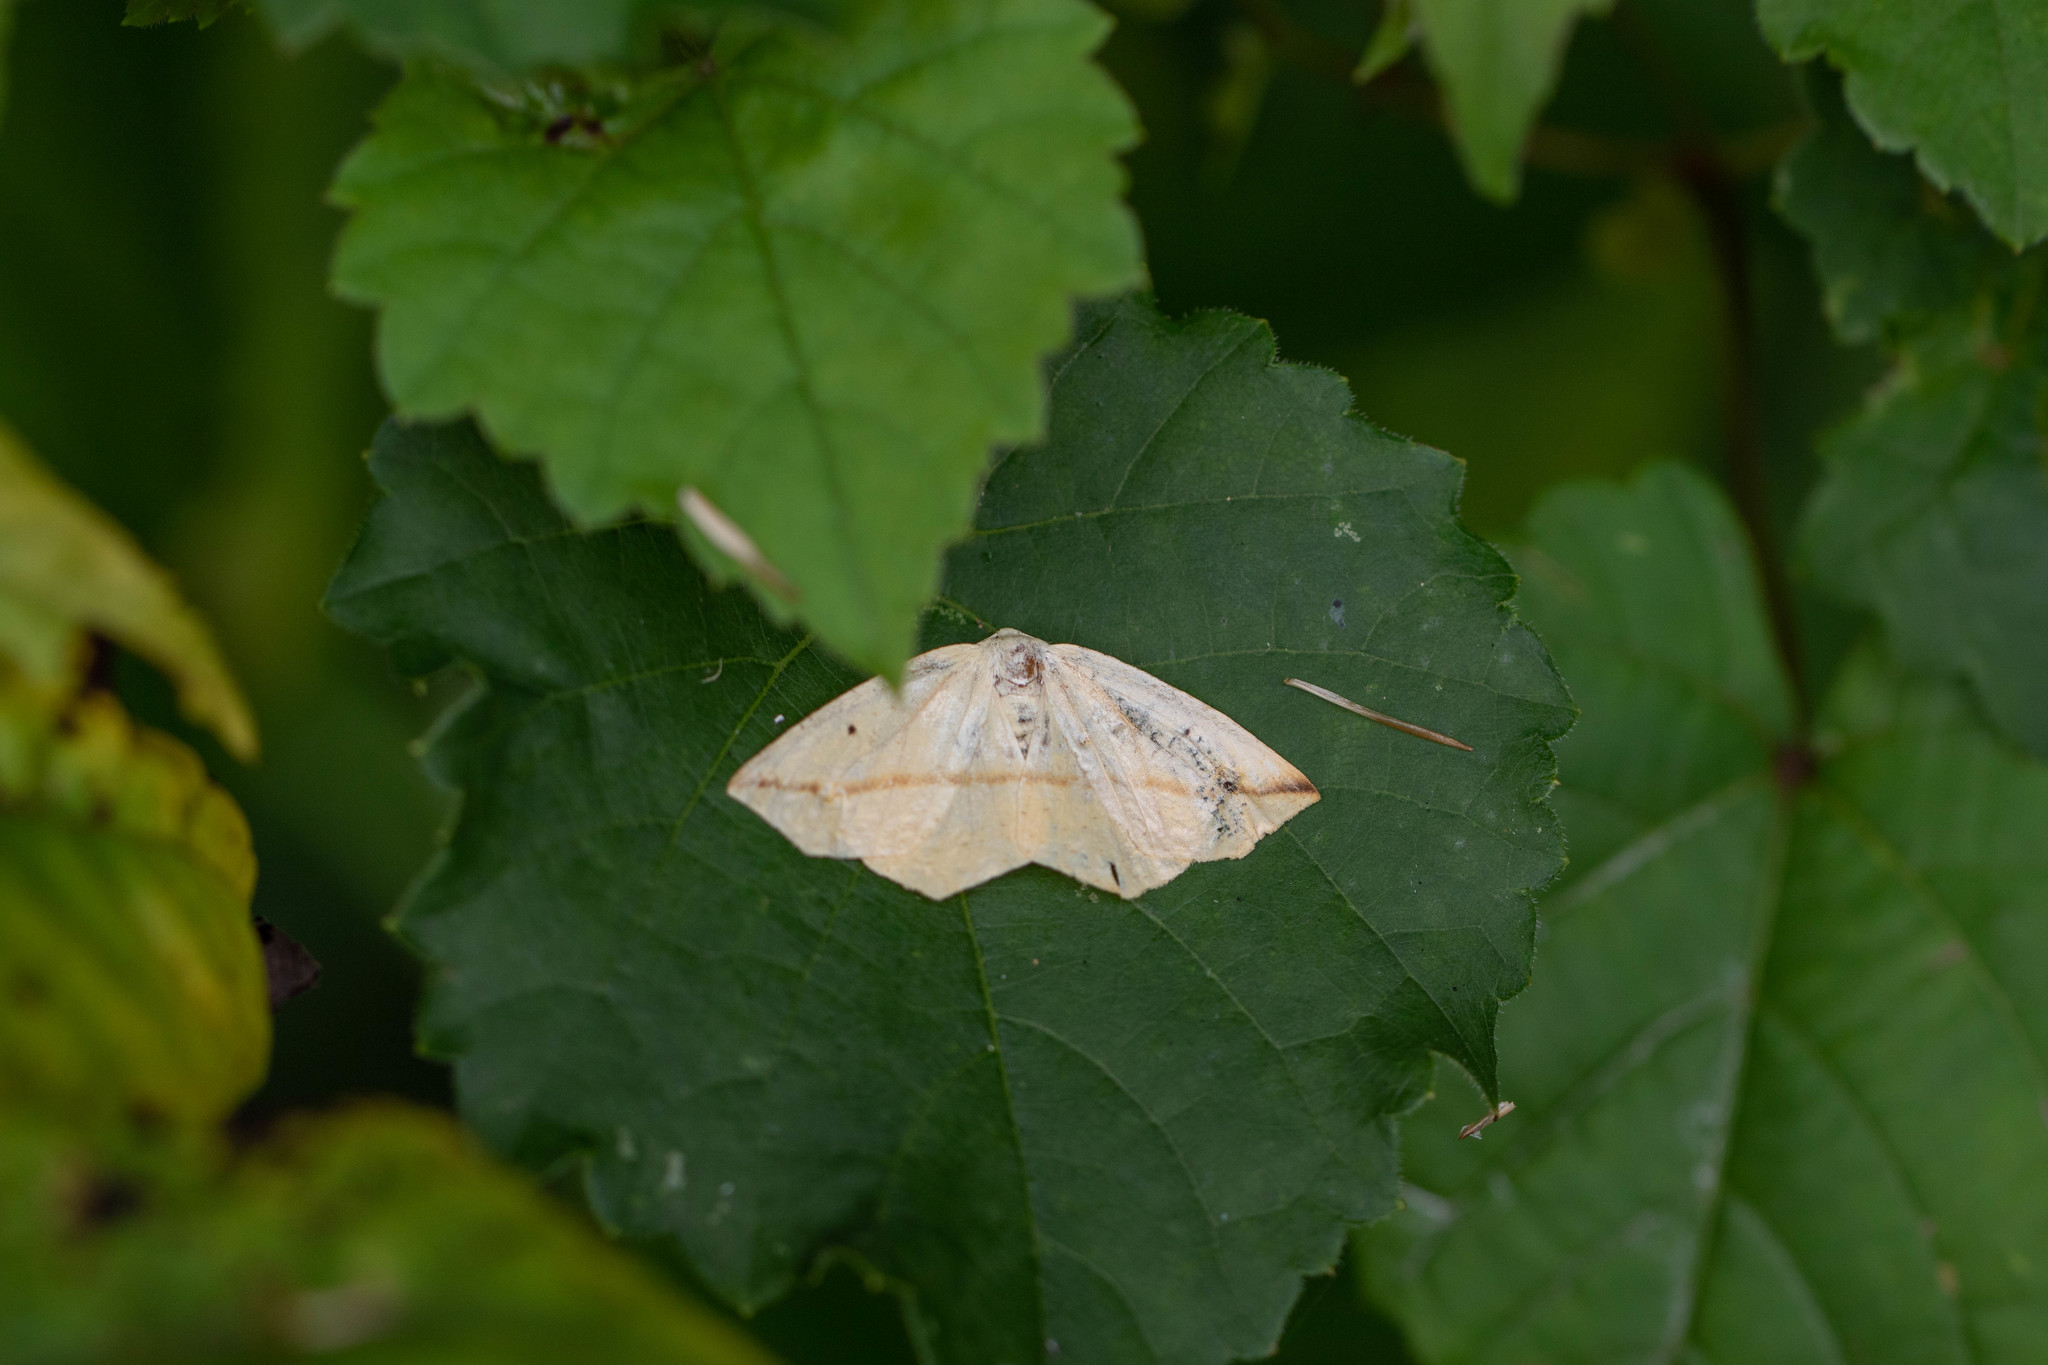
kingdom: Animalia
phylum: Arthropoda
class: Insecta
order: Lepidoptera
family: Geometridae
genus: Tetracis
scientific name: Tetracis crocallata
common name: Yellow slant-line
